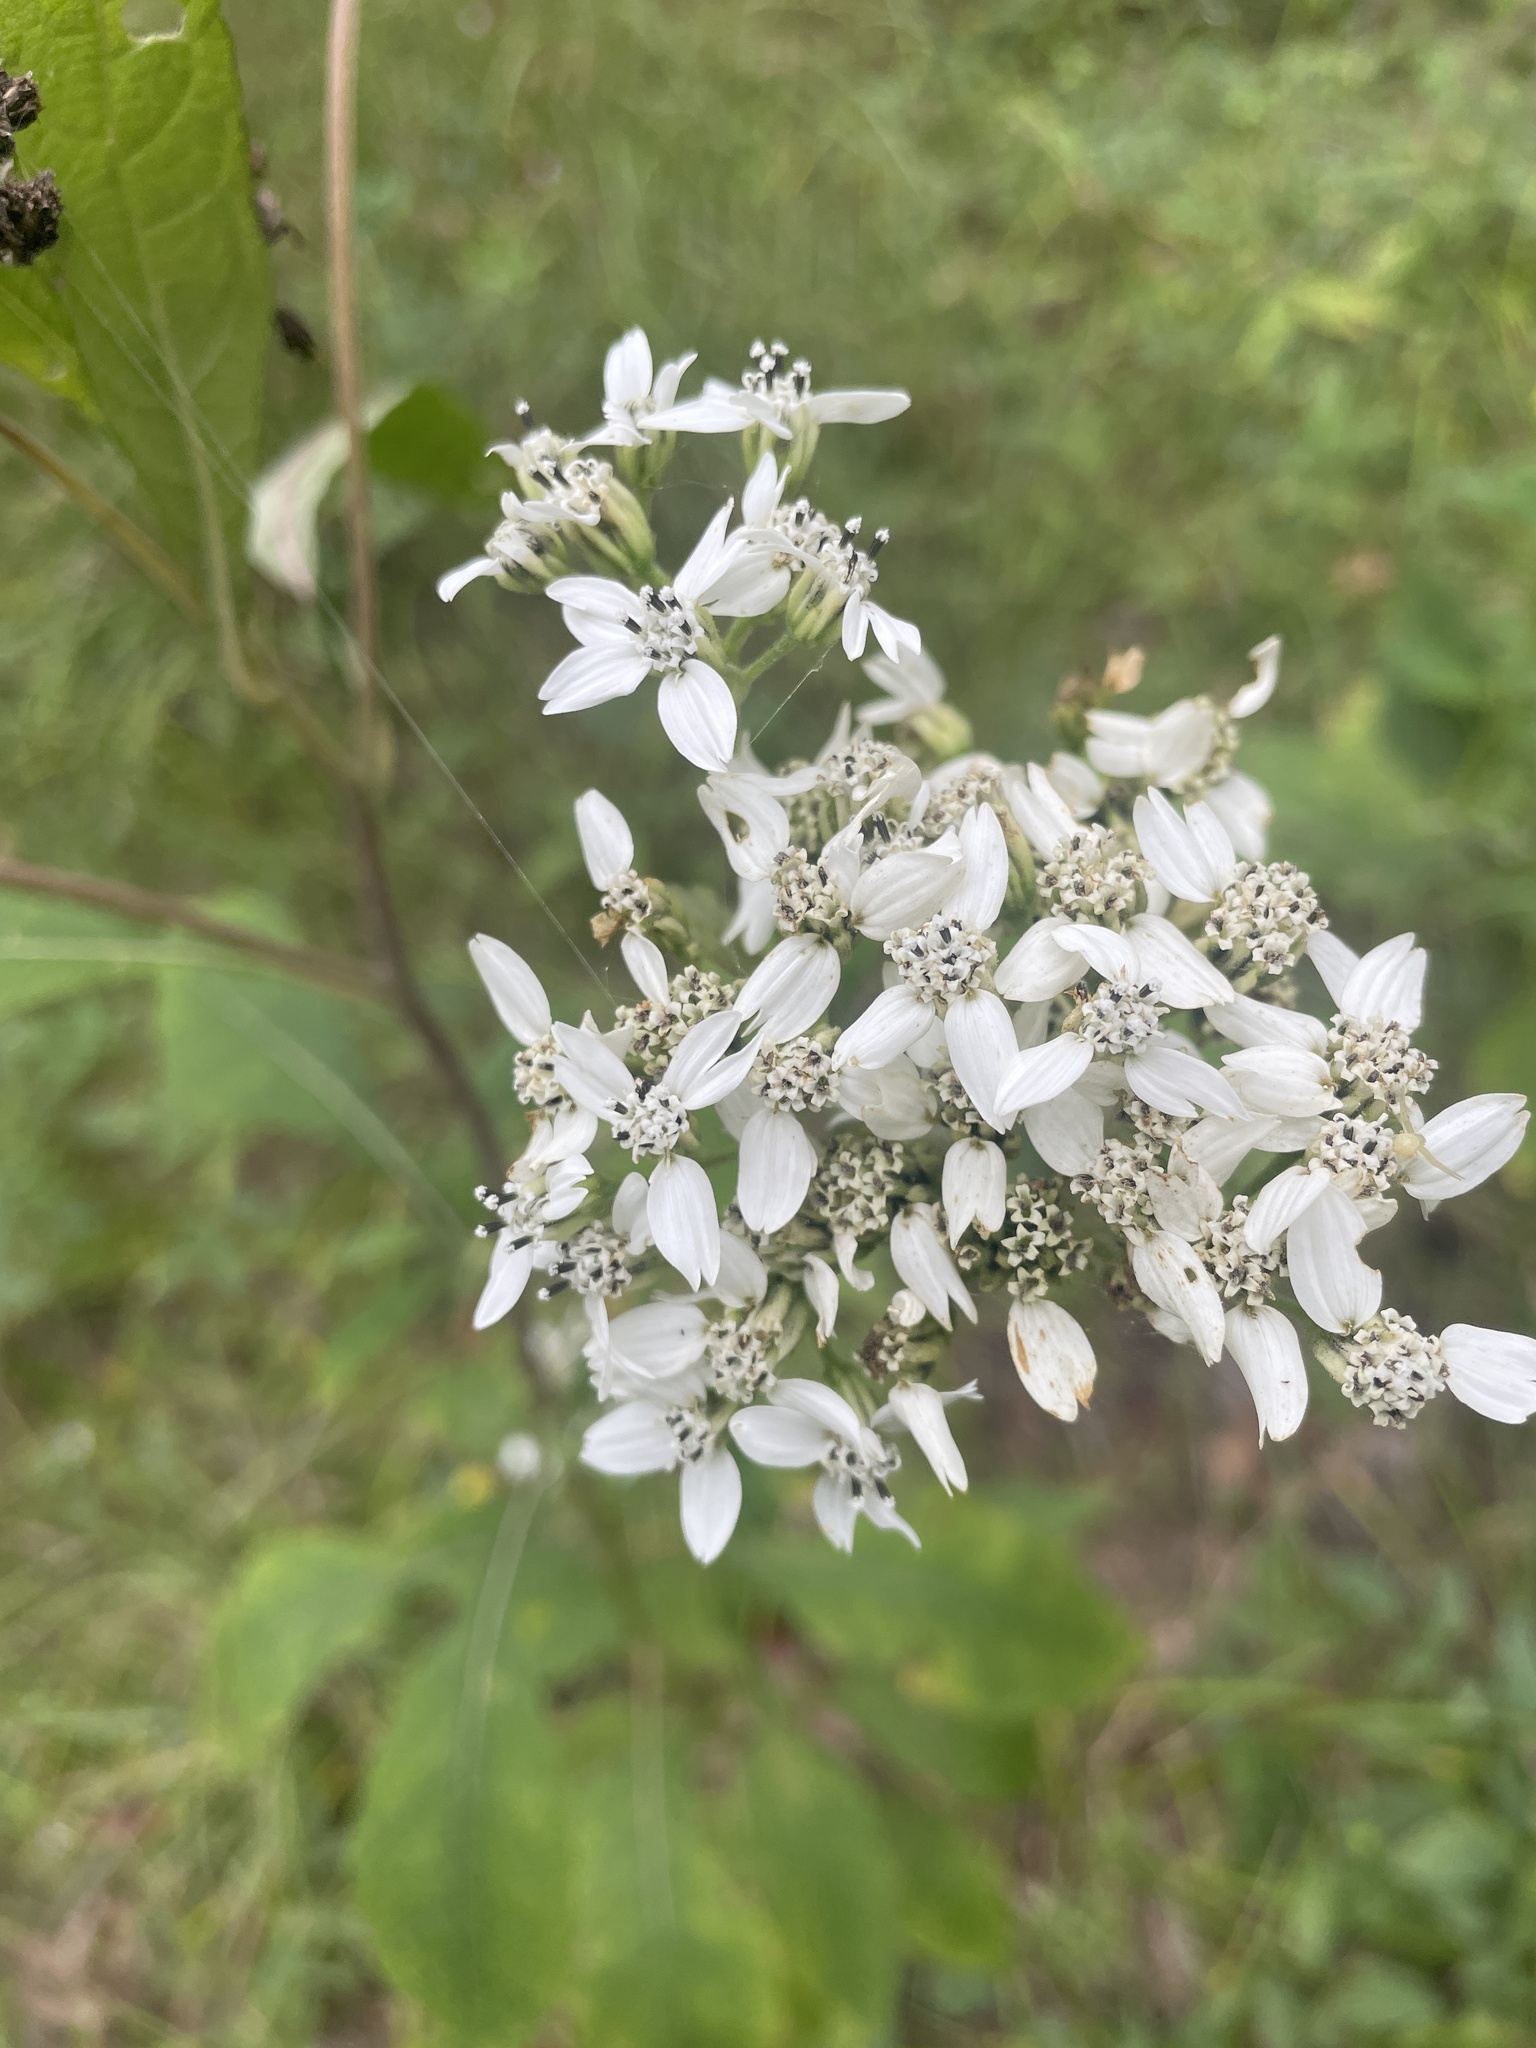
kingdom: Plantae
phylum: Tracheophyta
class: Magnoliopsida
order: Asterales
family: Asteraceae
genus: Verbesina
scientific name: Verbesina virginica
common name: Frostweed
